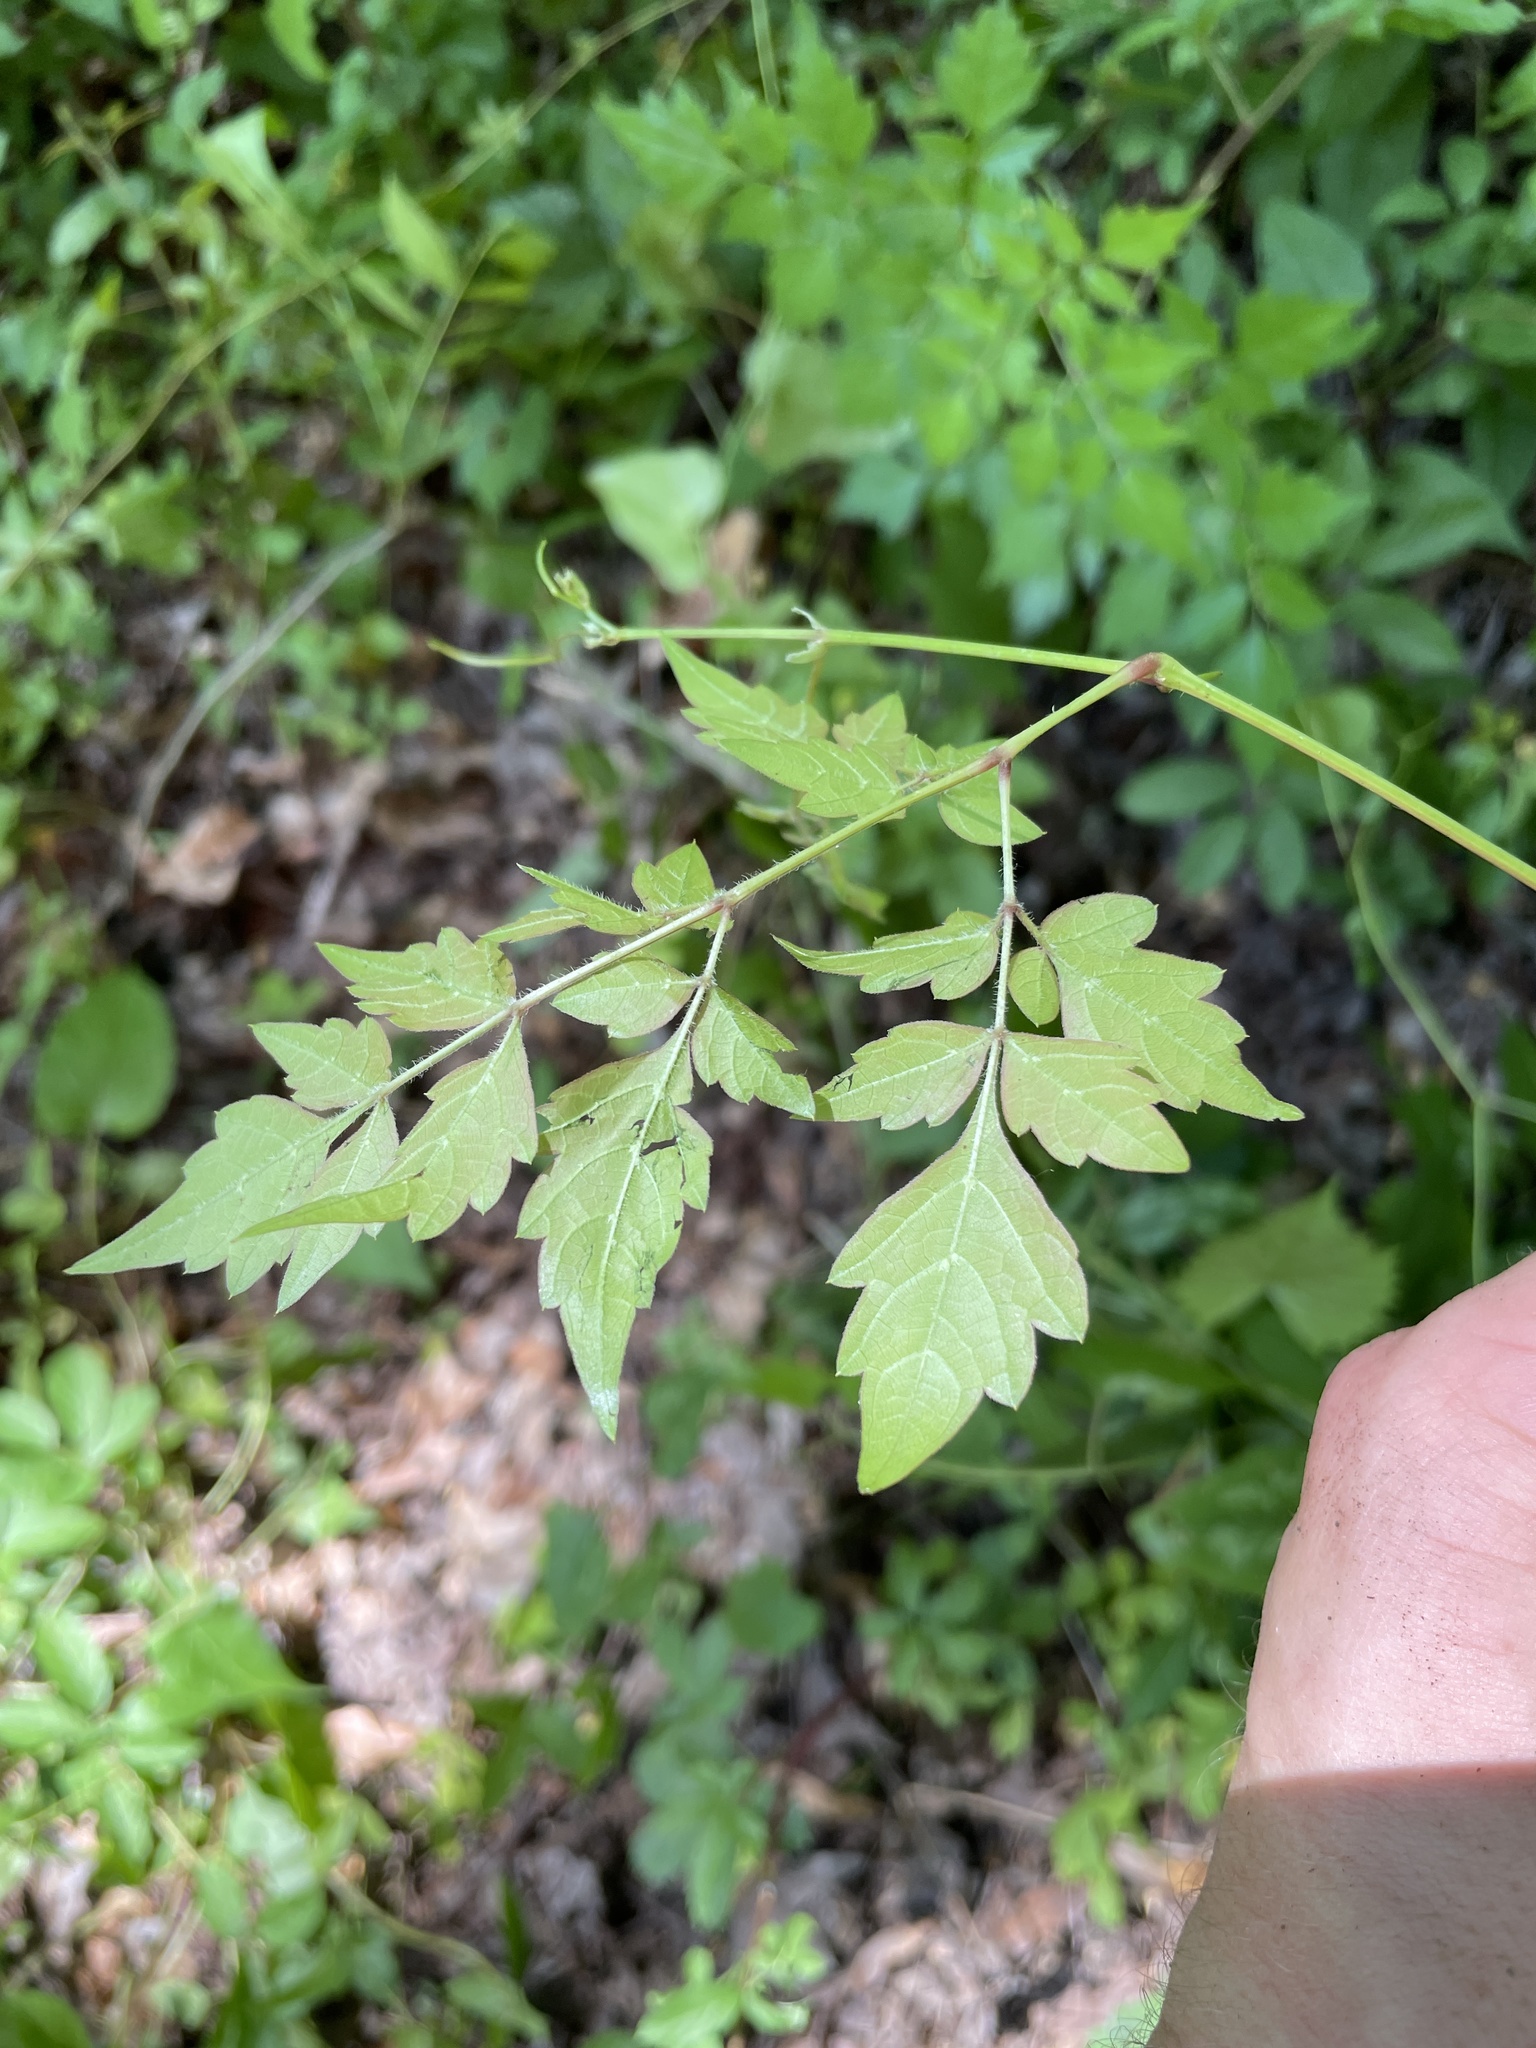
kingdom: Plantae
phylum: Tracheophyta
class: Magnoliopsida
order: Vitales
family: Vitaceae
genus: Nekemias
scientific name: Nekemias arborea
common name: Peppervine
